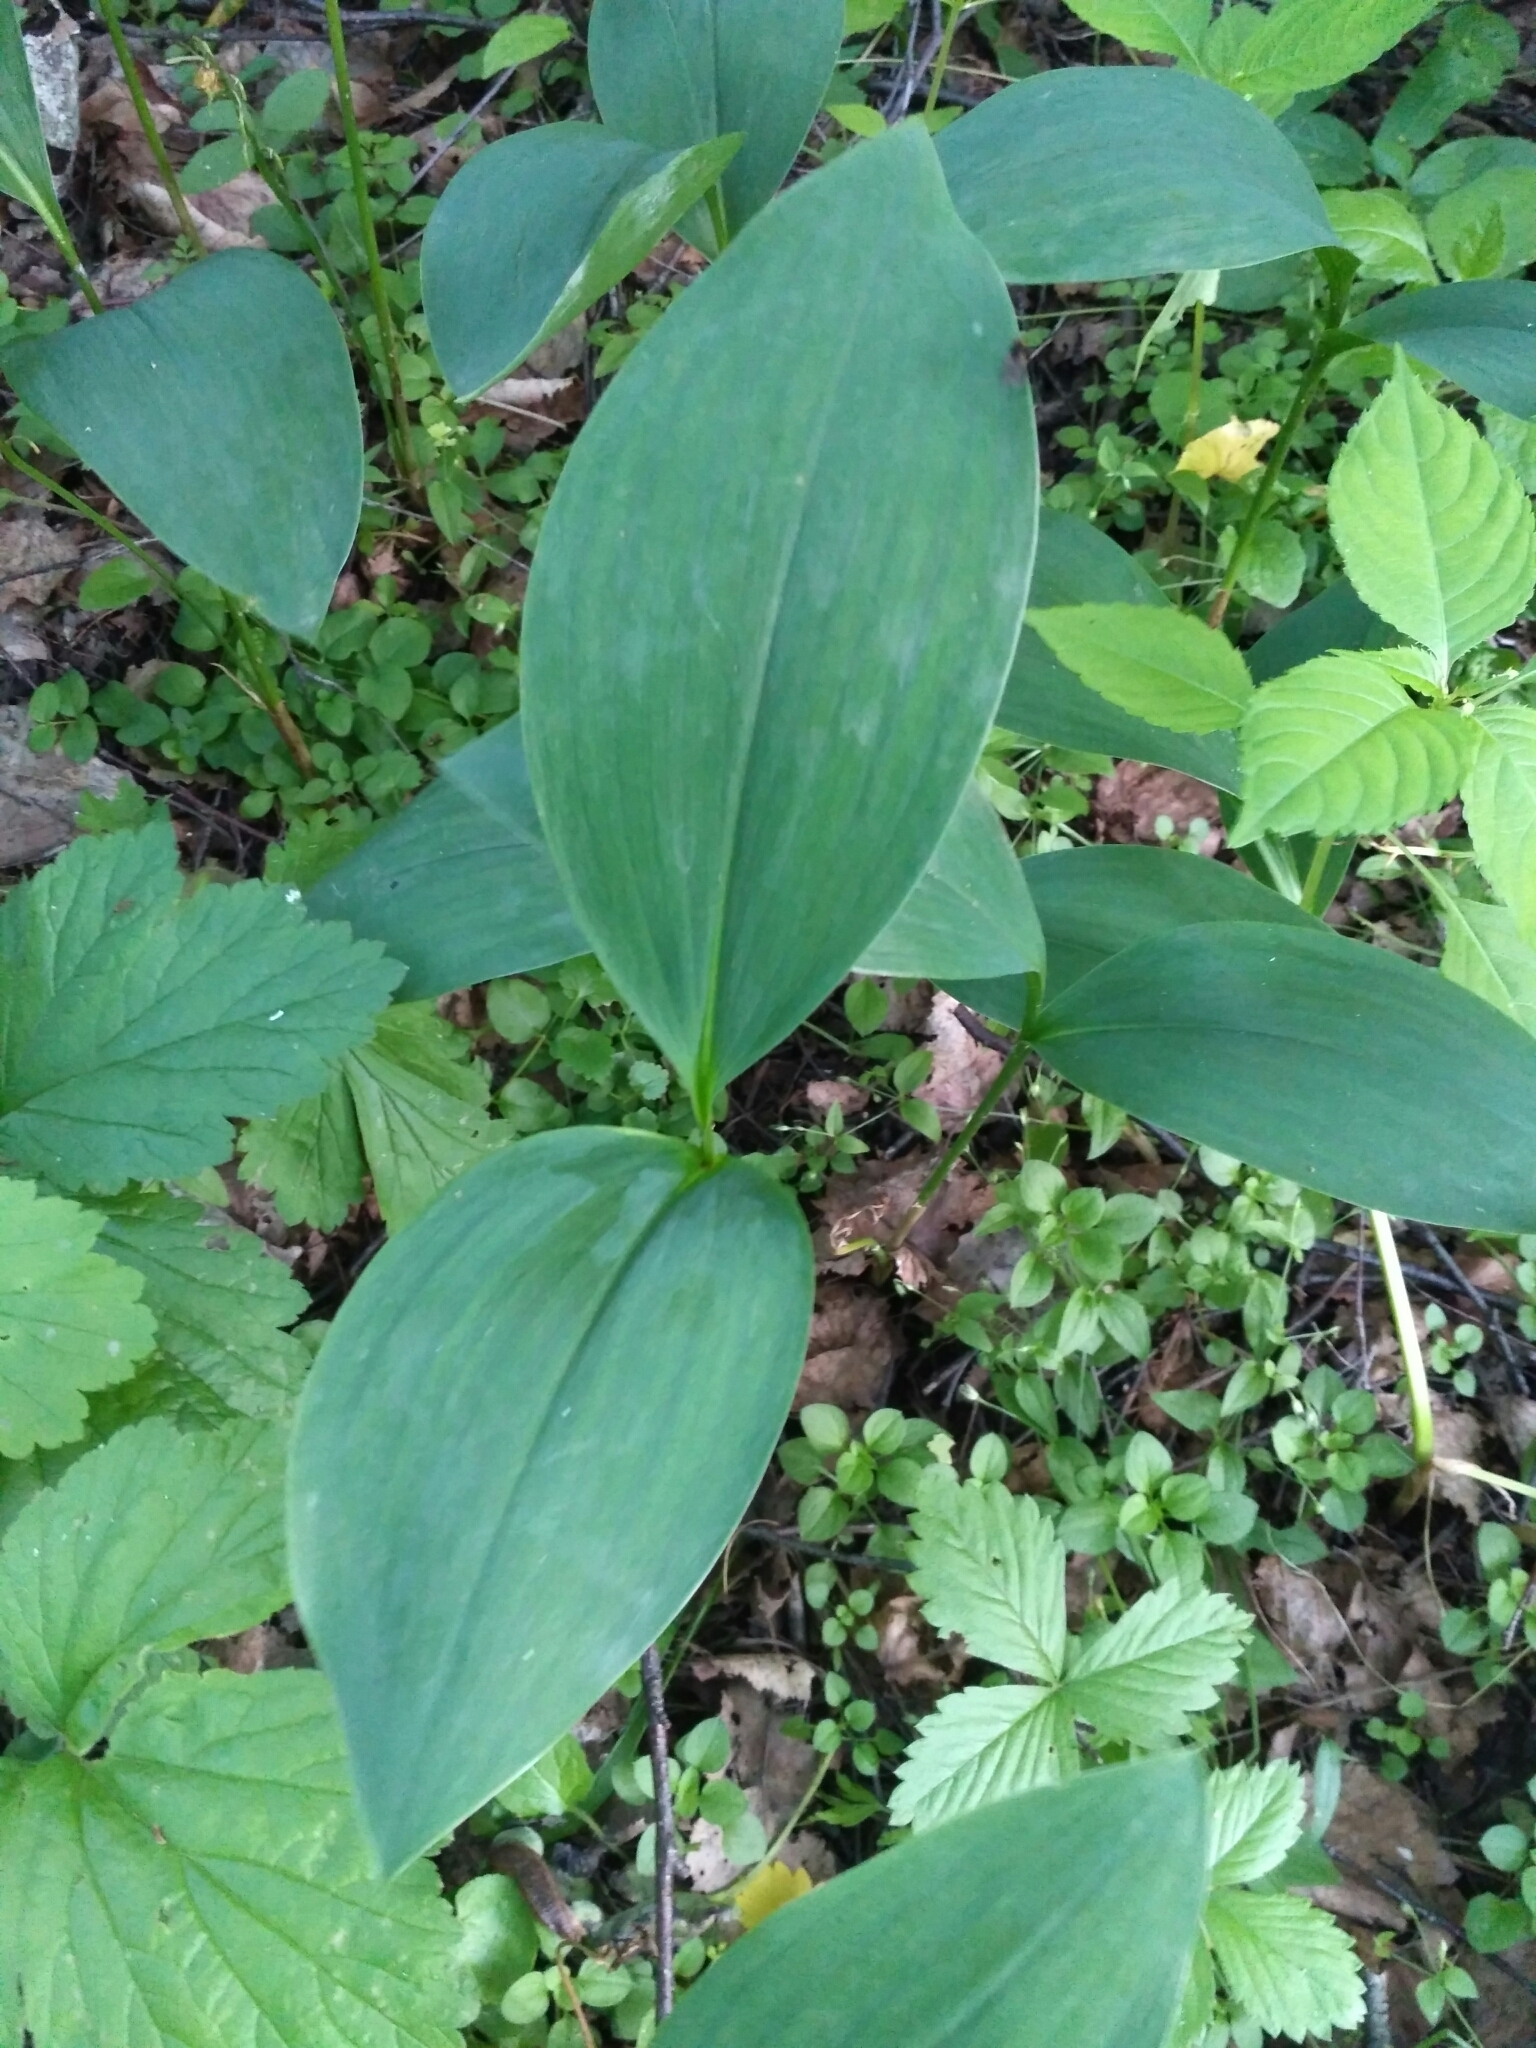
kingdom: Plantae
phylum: Tracheophyta
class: Liliopsida
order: Asparagales
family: Asparagaceae
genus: Convallaria
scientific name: Convallaria majalis
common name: Lily-of-the-valley
